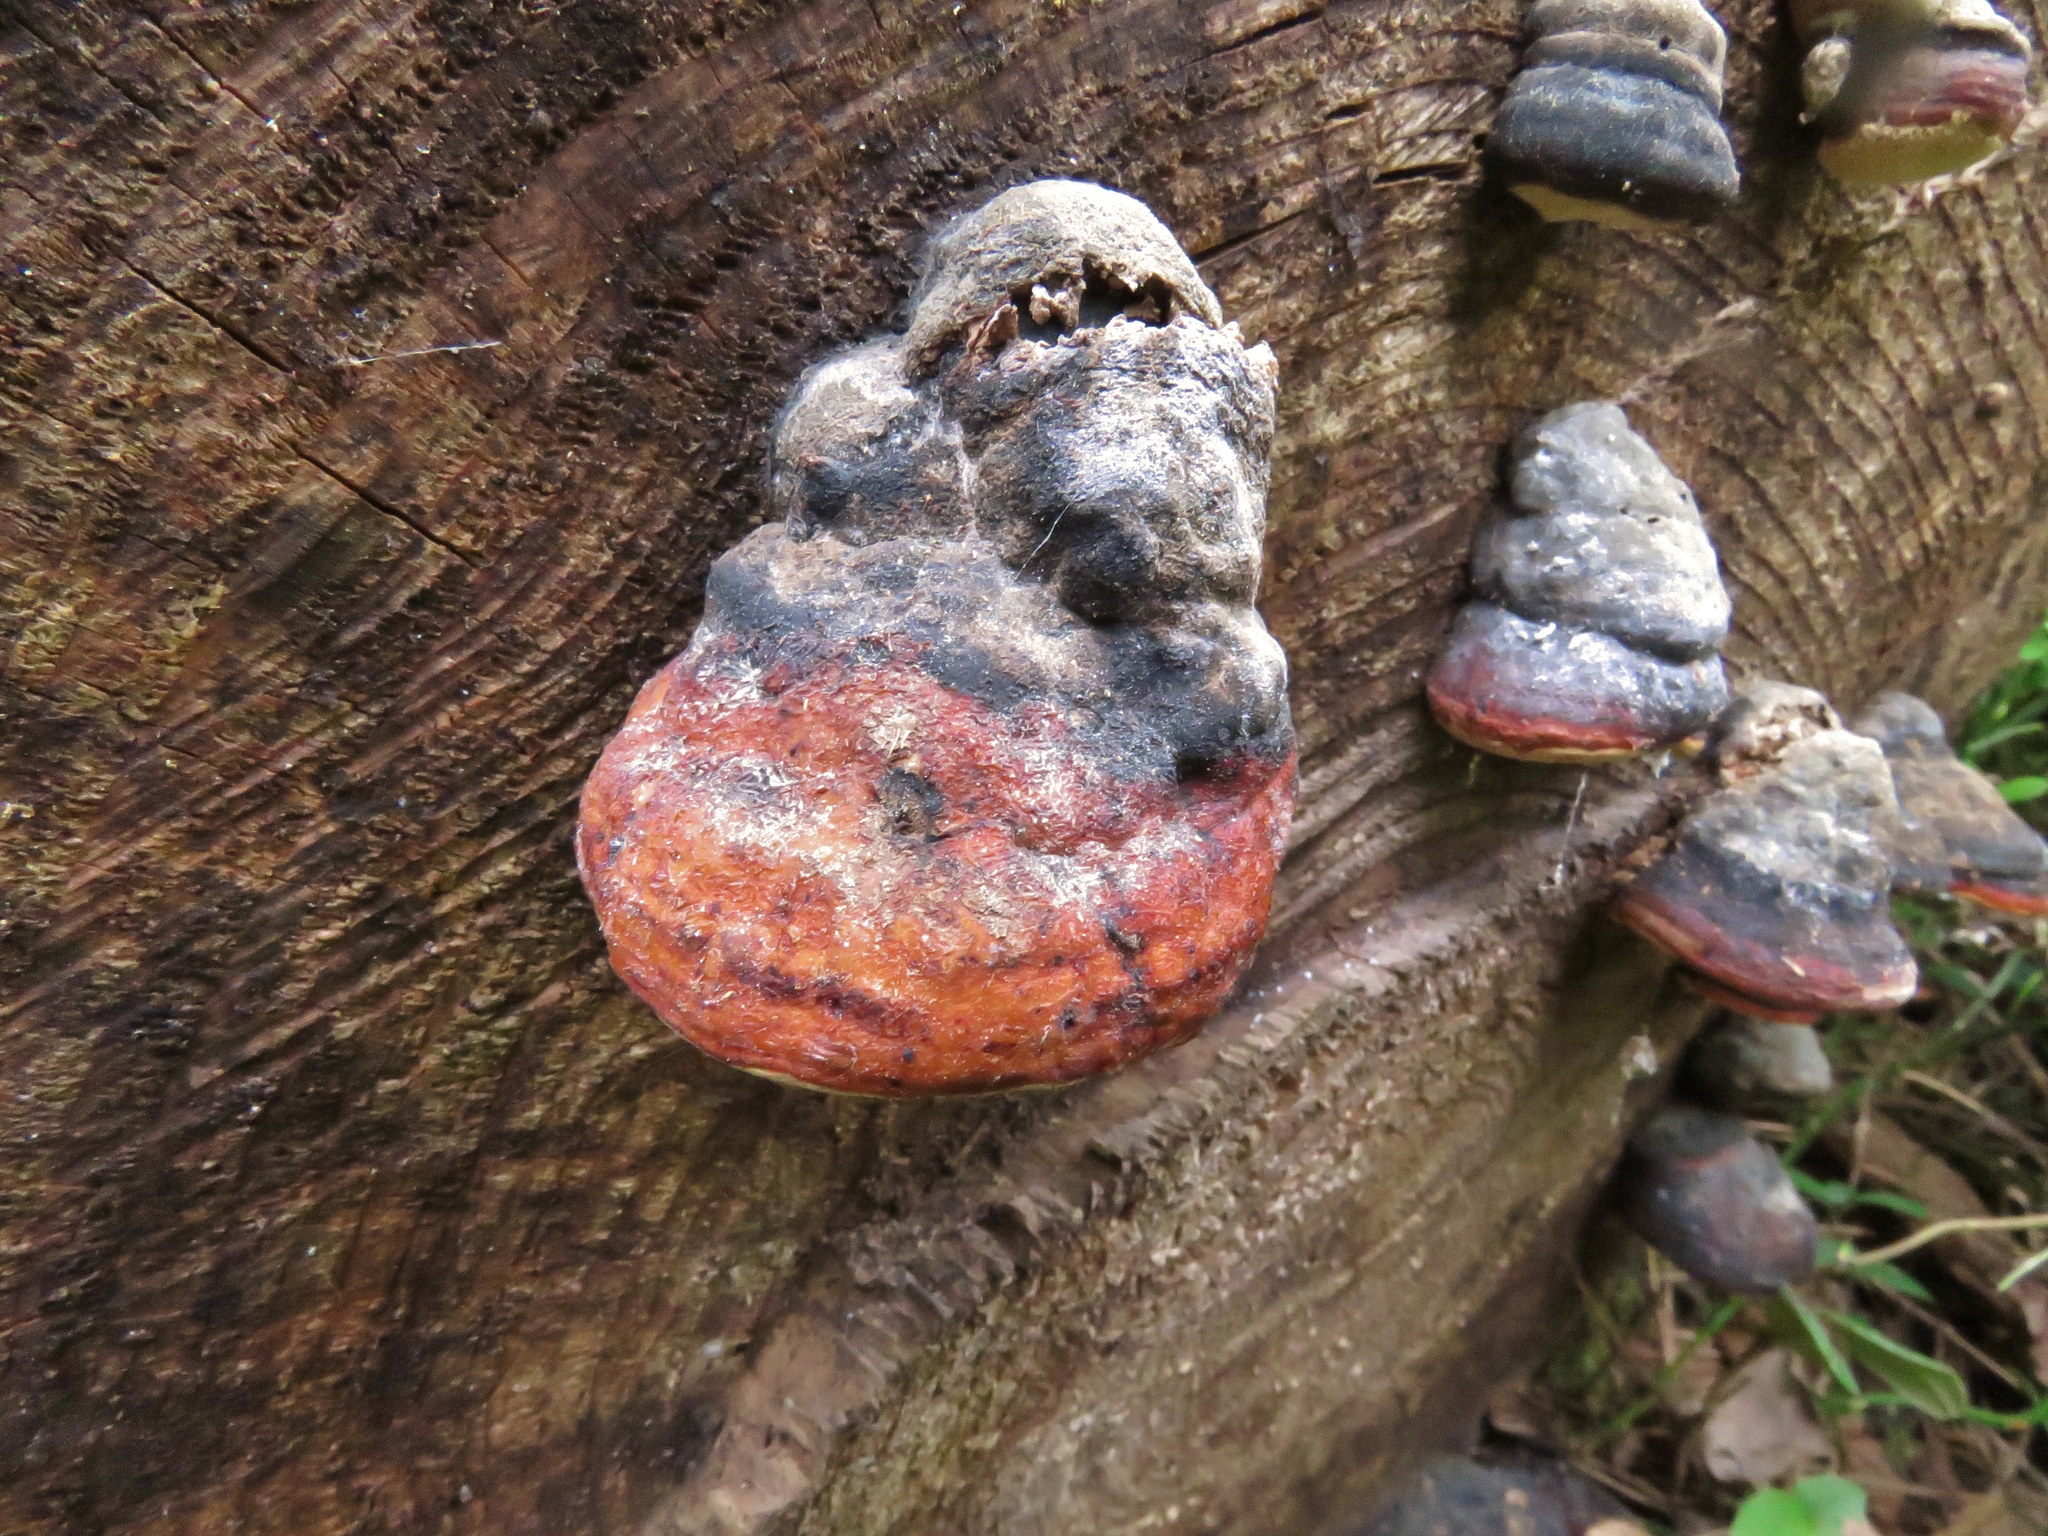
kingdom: Fungi
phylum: Basidiomycota
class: Agaricomycetes
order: Polyporales
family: Polyporaceae
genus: Fomes
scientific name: Fomes fomentarius
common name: Hoof fungus
